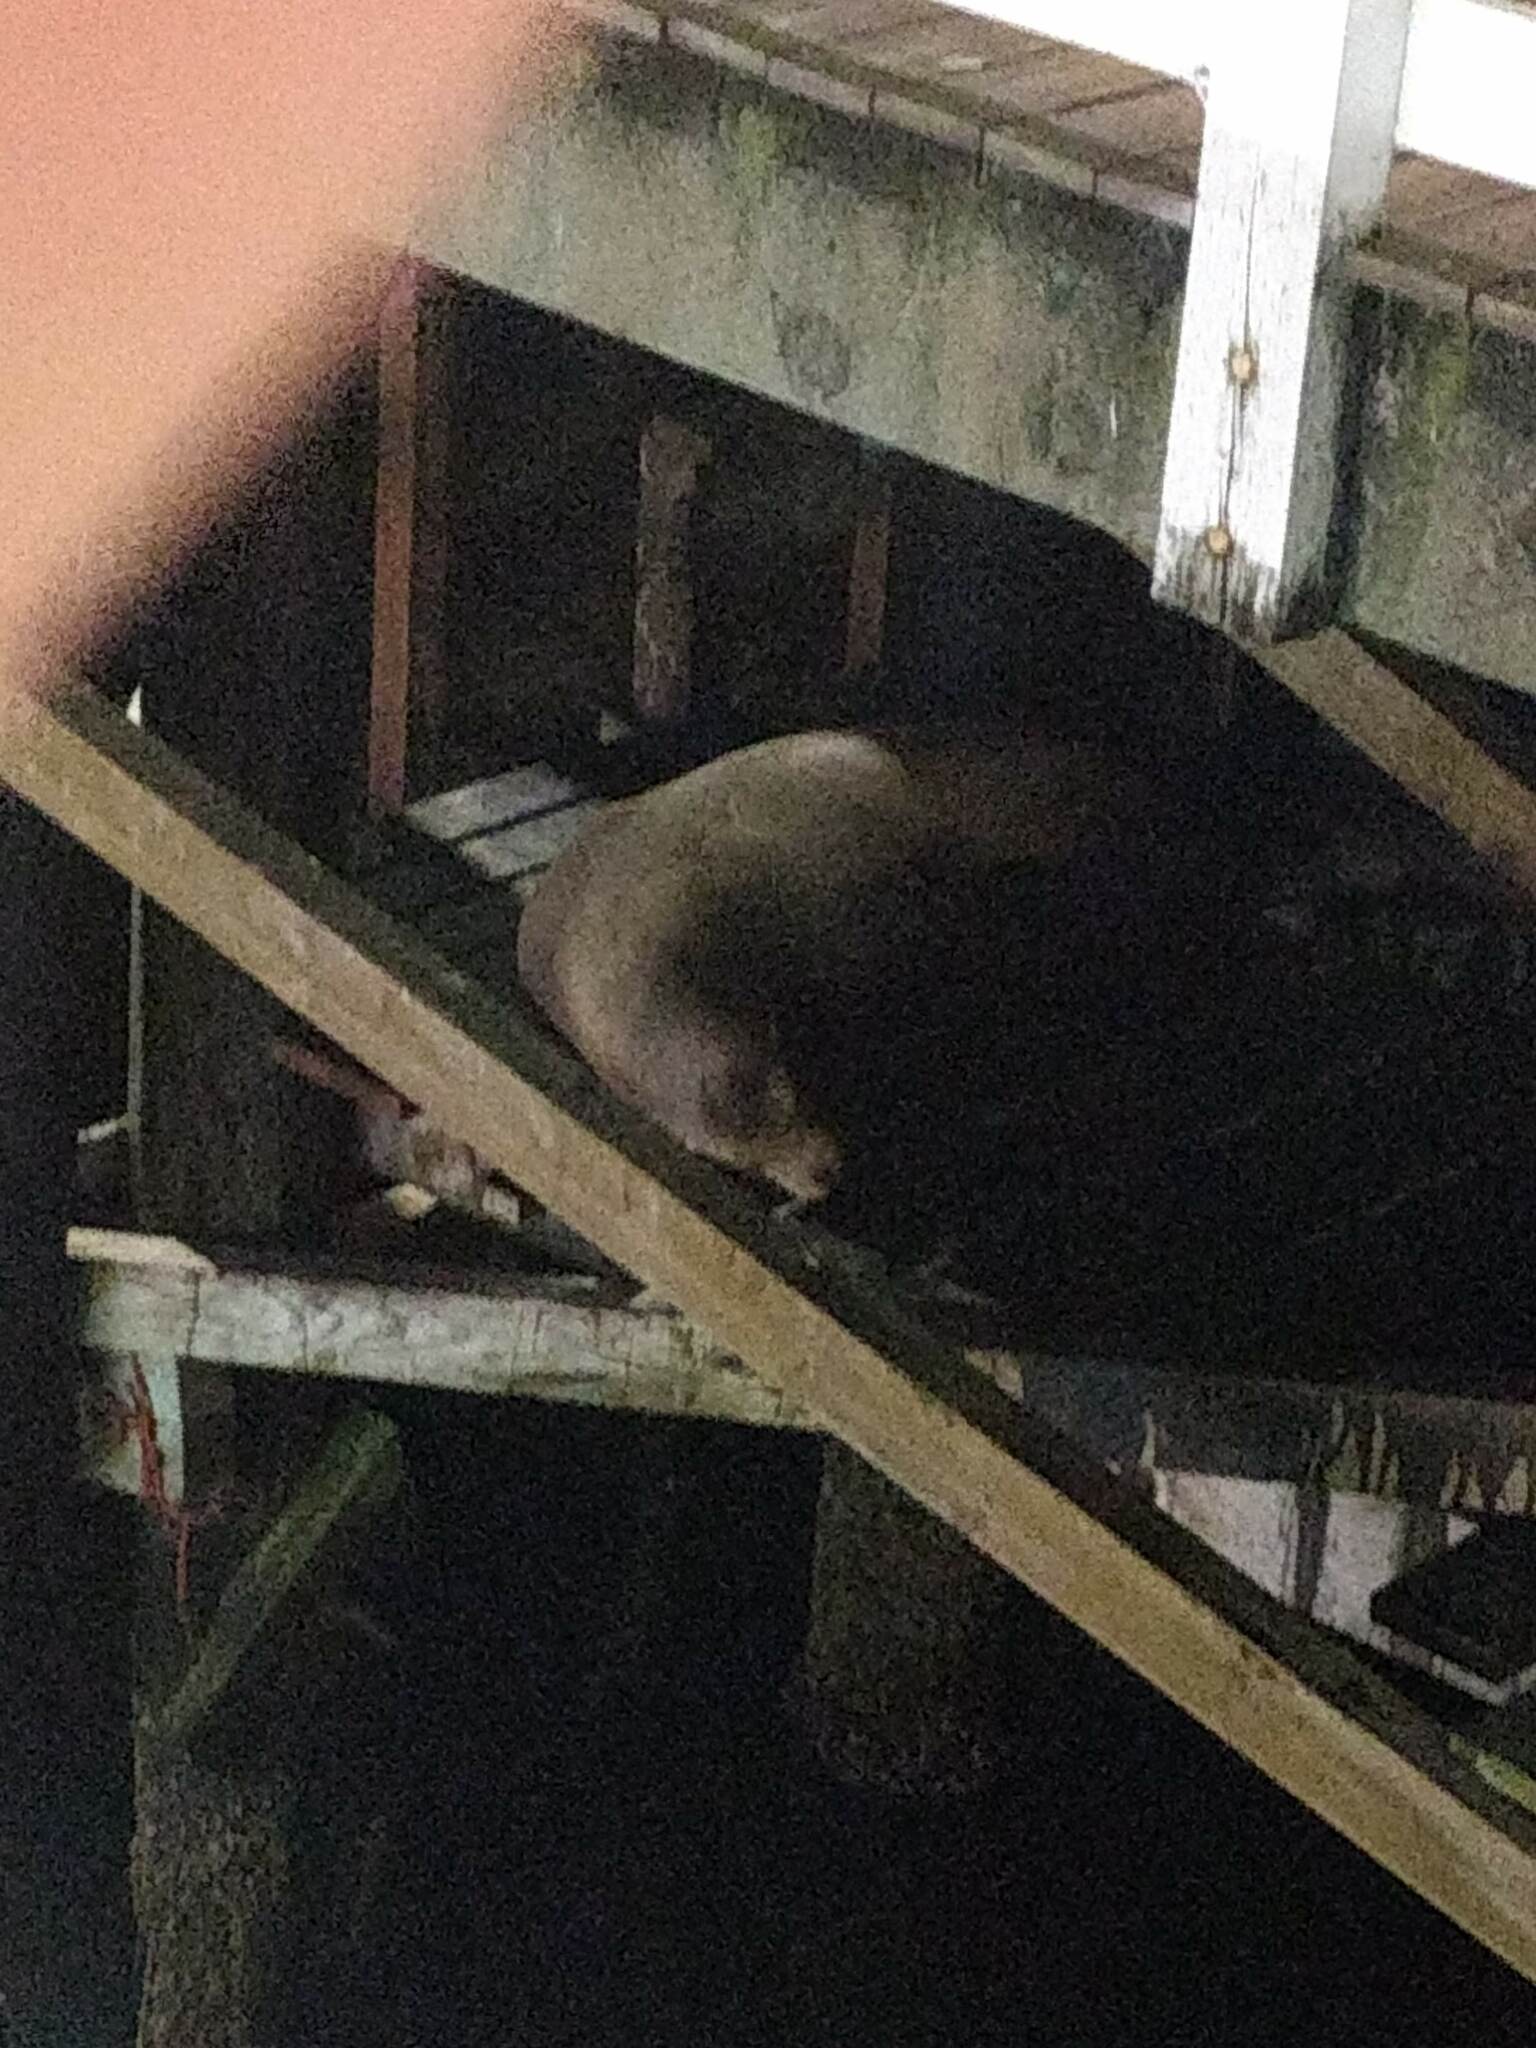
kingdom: Animalia
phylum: Chordata
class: Mammalia
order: Carnivora
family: Otariidae
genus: Zalophus
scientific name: Zalophus californianus
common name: California sea lion
